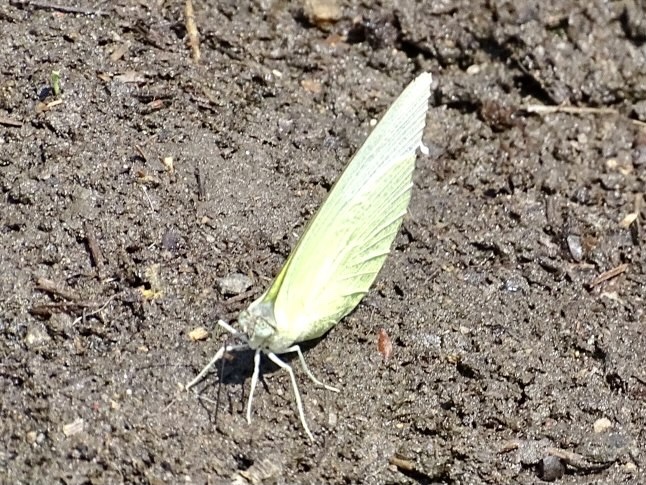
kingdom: Animalia
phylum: Arthropoda
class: Insecta
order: Lepidoptera
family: Pieridae
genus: Catopsilia
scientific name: Catopsilia pomona
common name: Common emigrant
